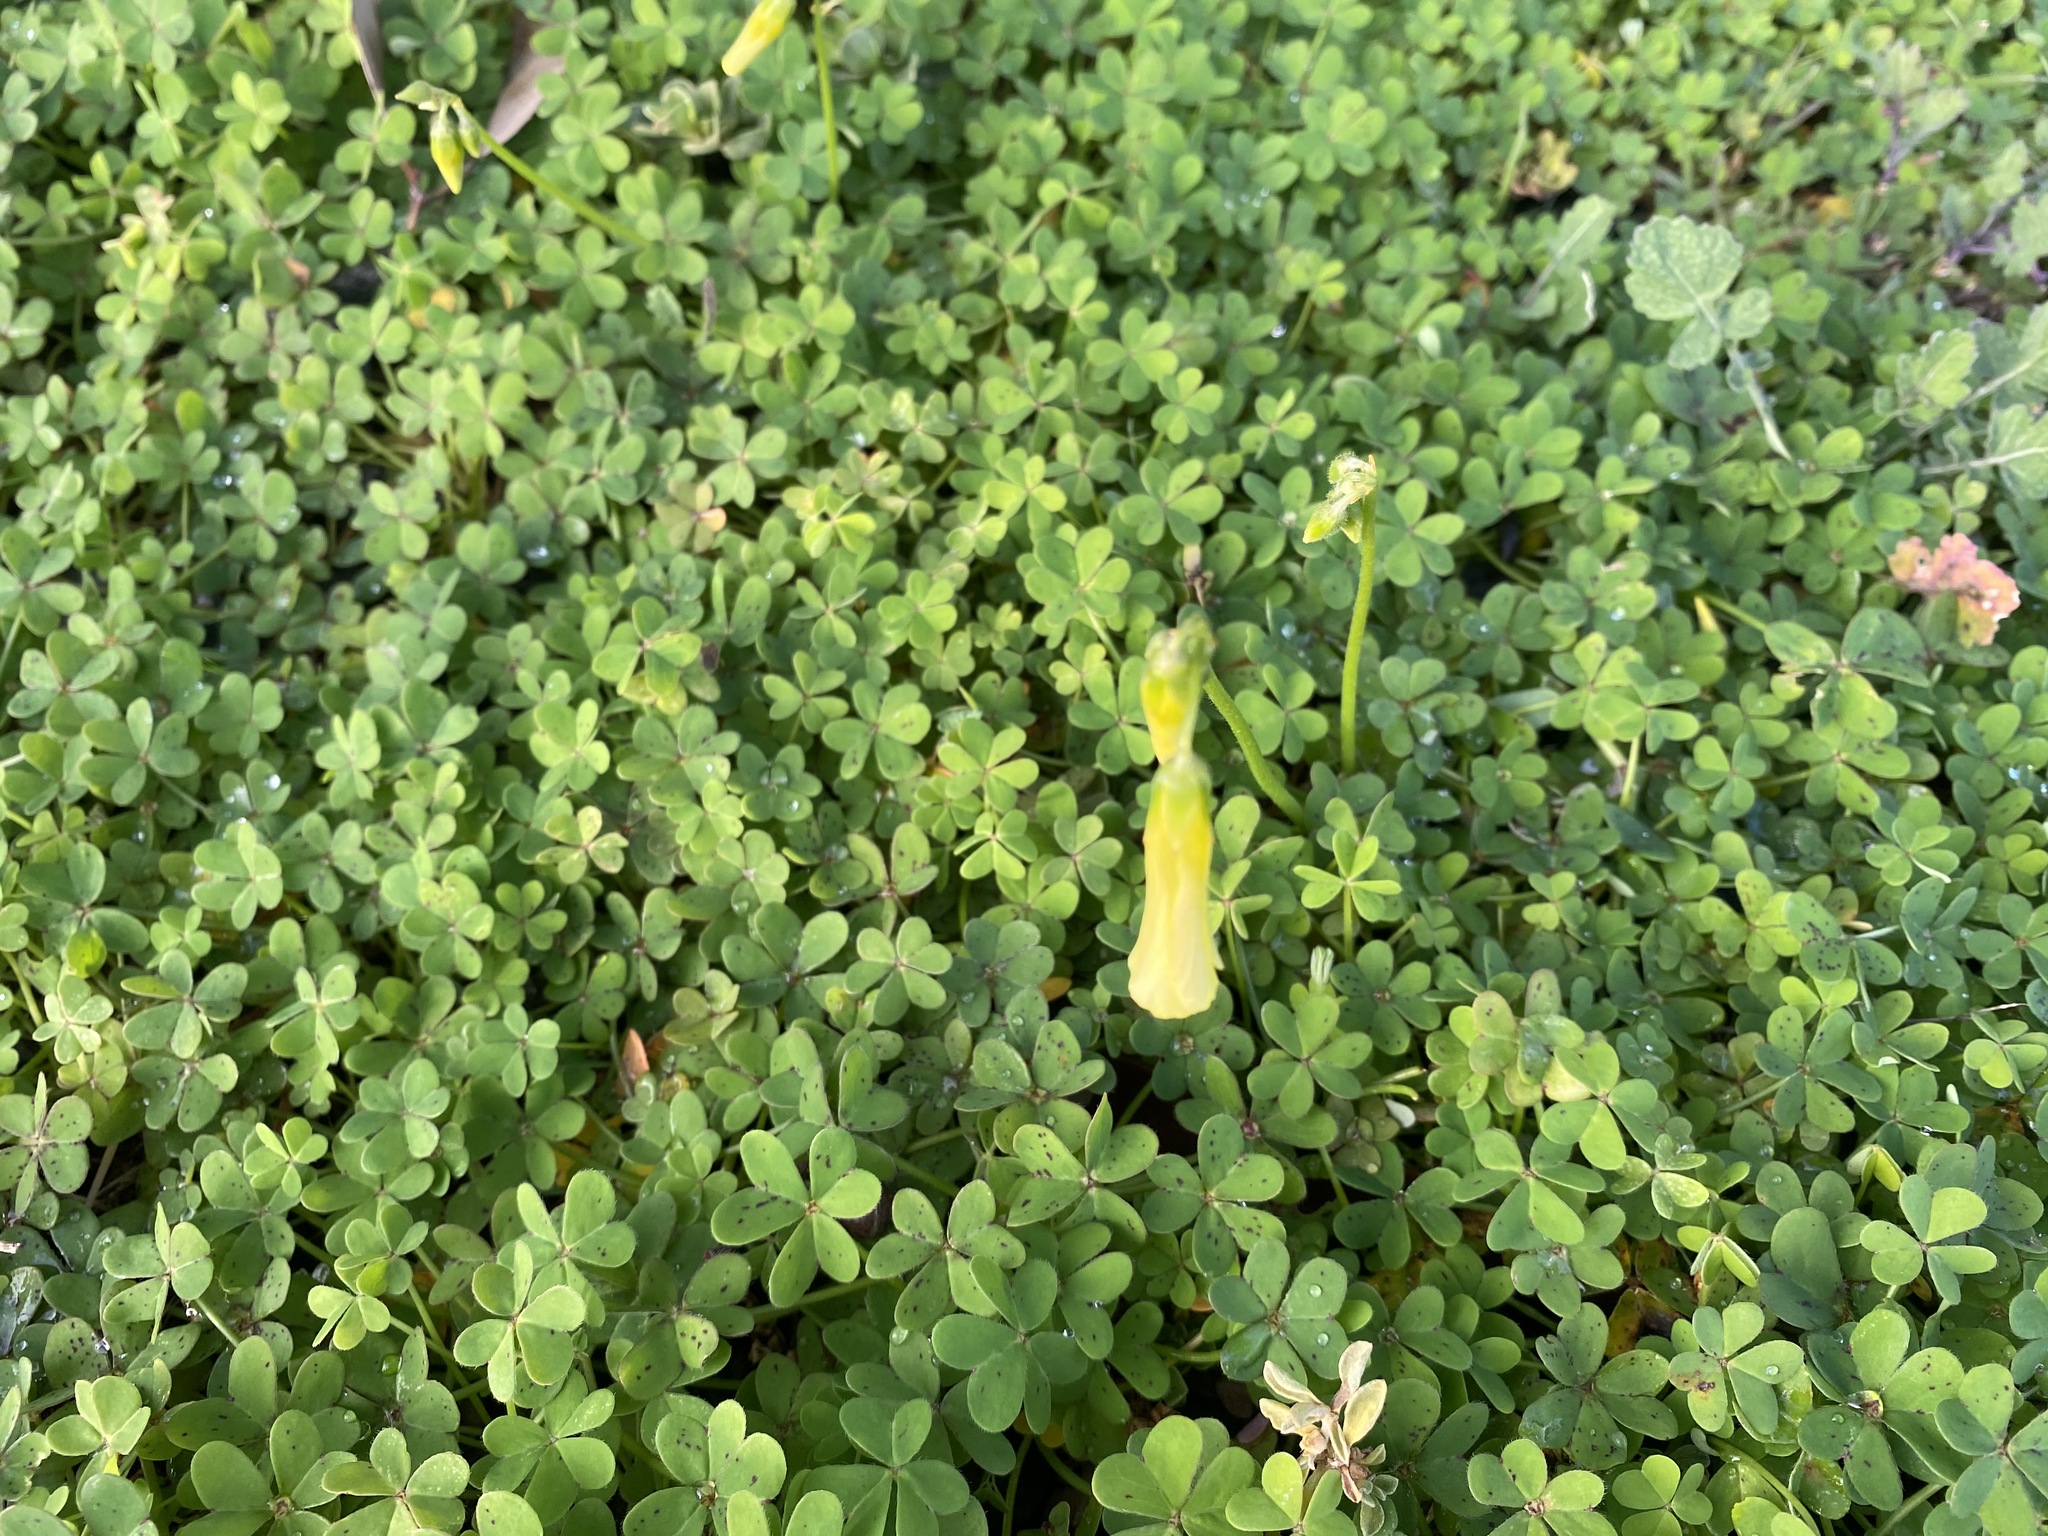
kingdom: Plantae
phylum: Tracheophyta
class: Magnoliopsida
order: Oxalidales
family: Oxalidaceae
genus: Oxalis
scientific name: Oxalis pes-caprae
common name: Bermuda-buttercup
